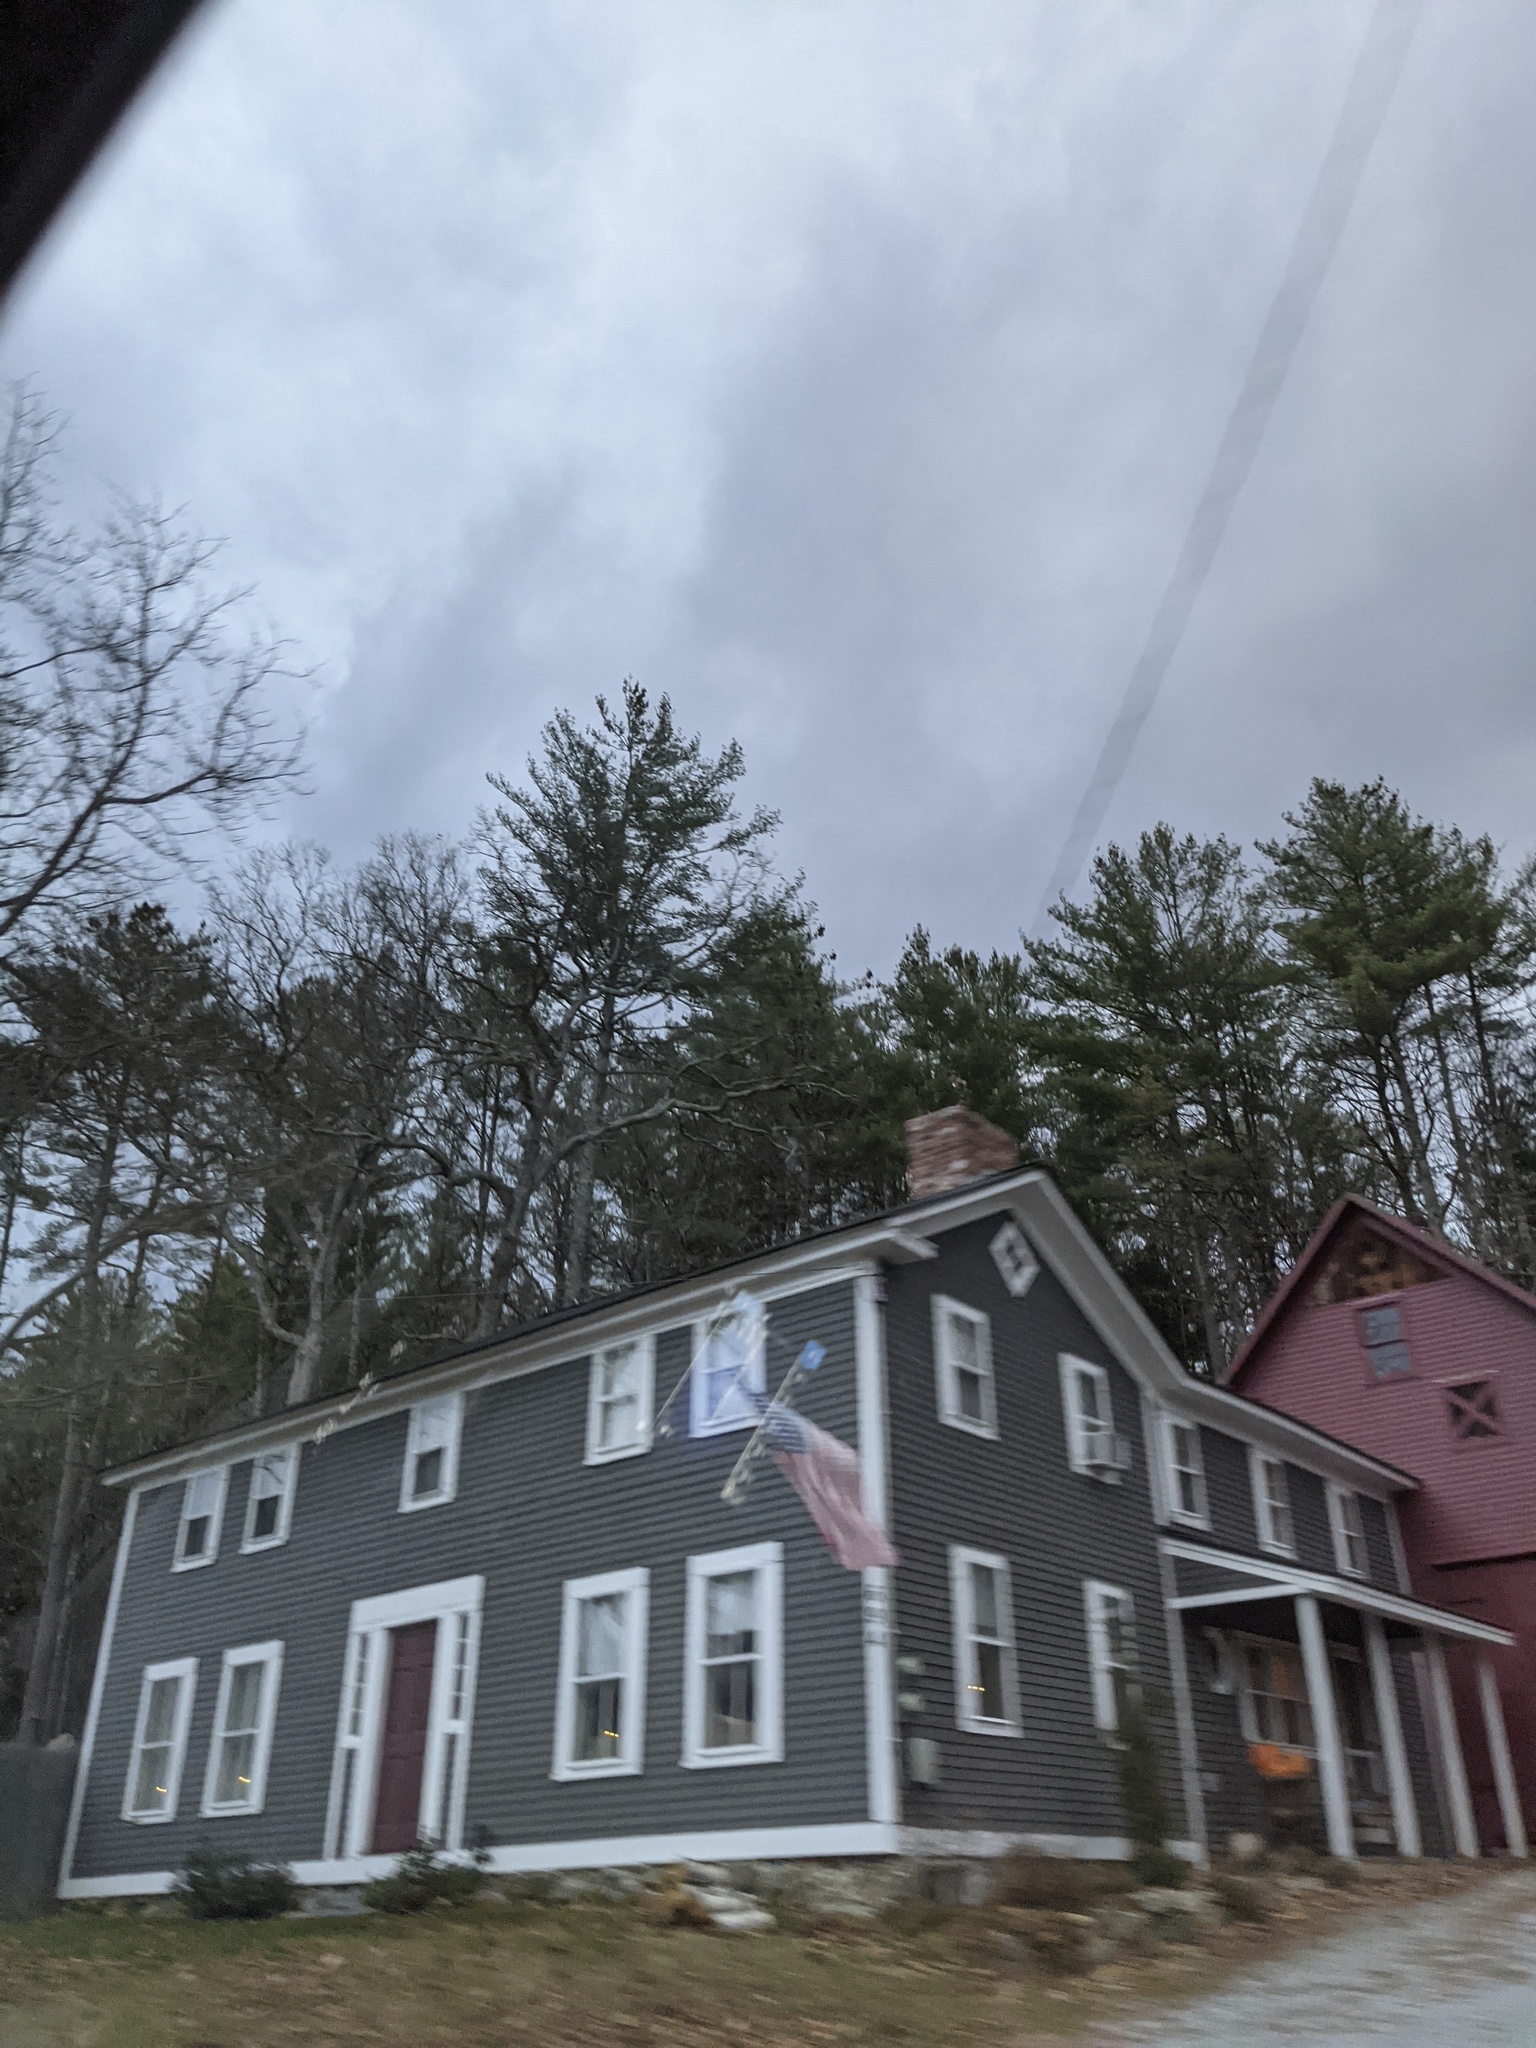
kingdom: Plantae
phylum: Tracheophyta
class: Pinopsida
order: Pinales
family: Pinaceae
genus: Pinus
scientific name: Pinus strobus
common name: Weymouth pine
